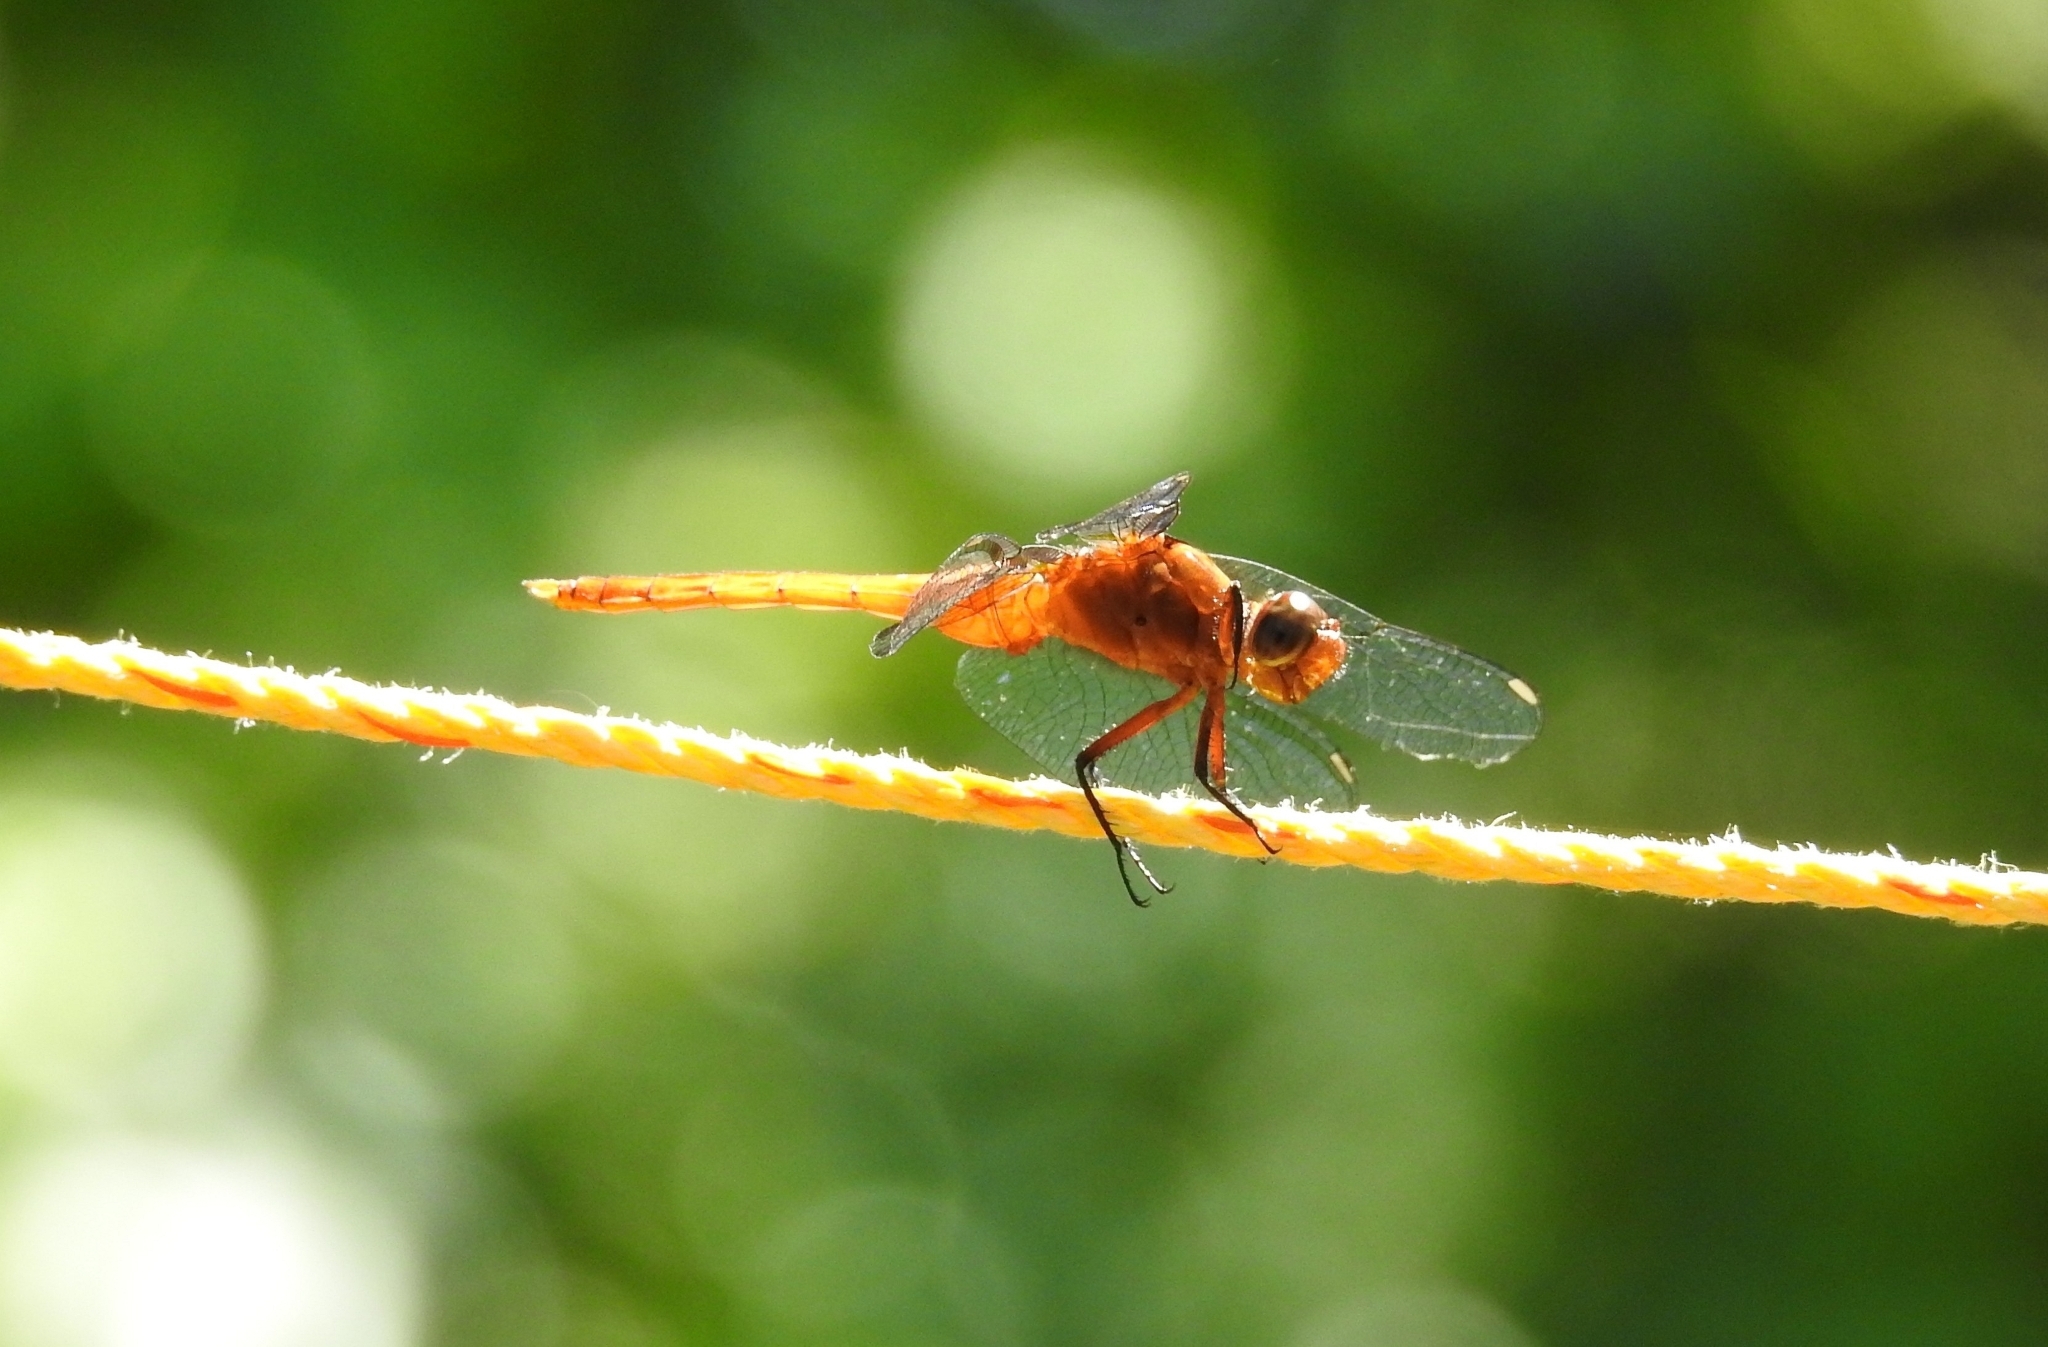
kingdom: Animalia
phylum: Arthropoda
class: Insecta
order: Odonata
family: Libellulidae
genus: Orthetrum
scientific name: Orthetrum chrysis
